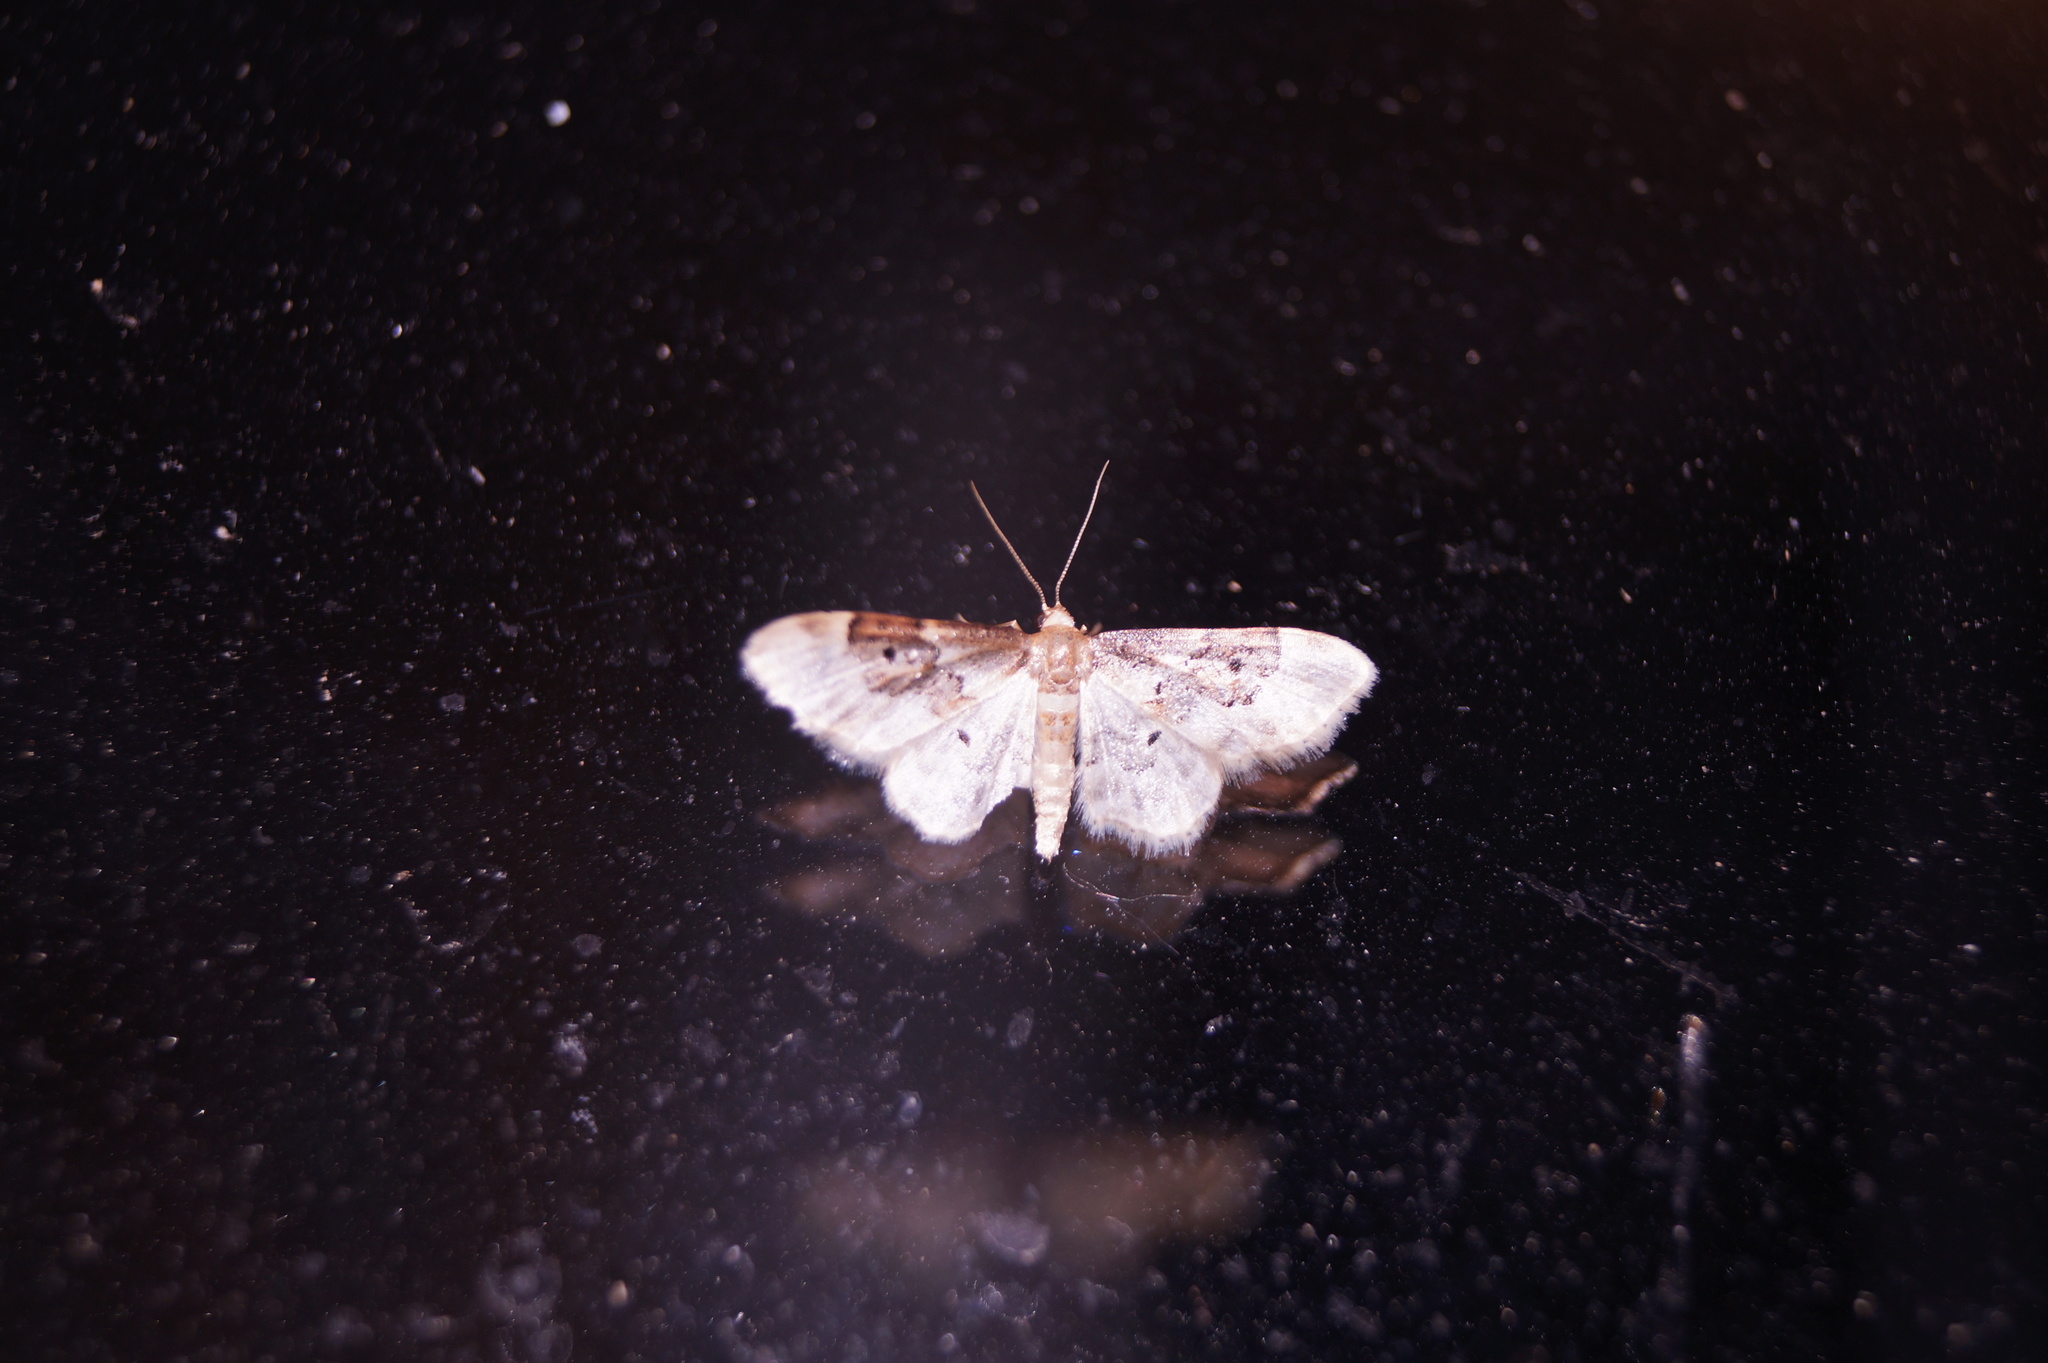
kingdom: Animalia
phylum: Arthropoda
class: Insecta
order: Lepidoptera
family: Geometridae
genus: Idaea
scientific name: Idaea rusticata
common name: Least carpet
